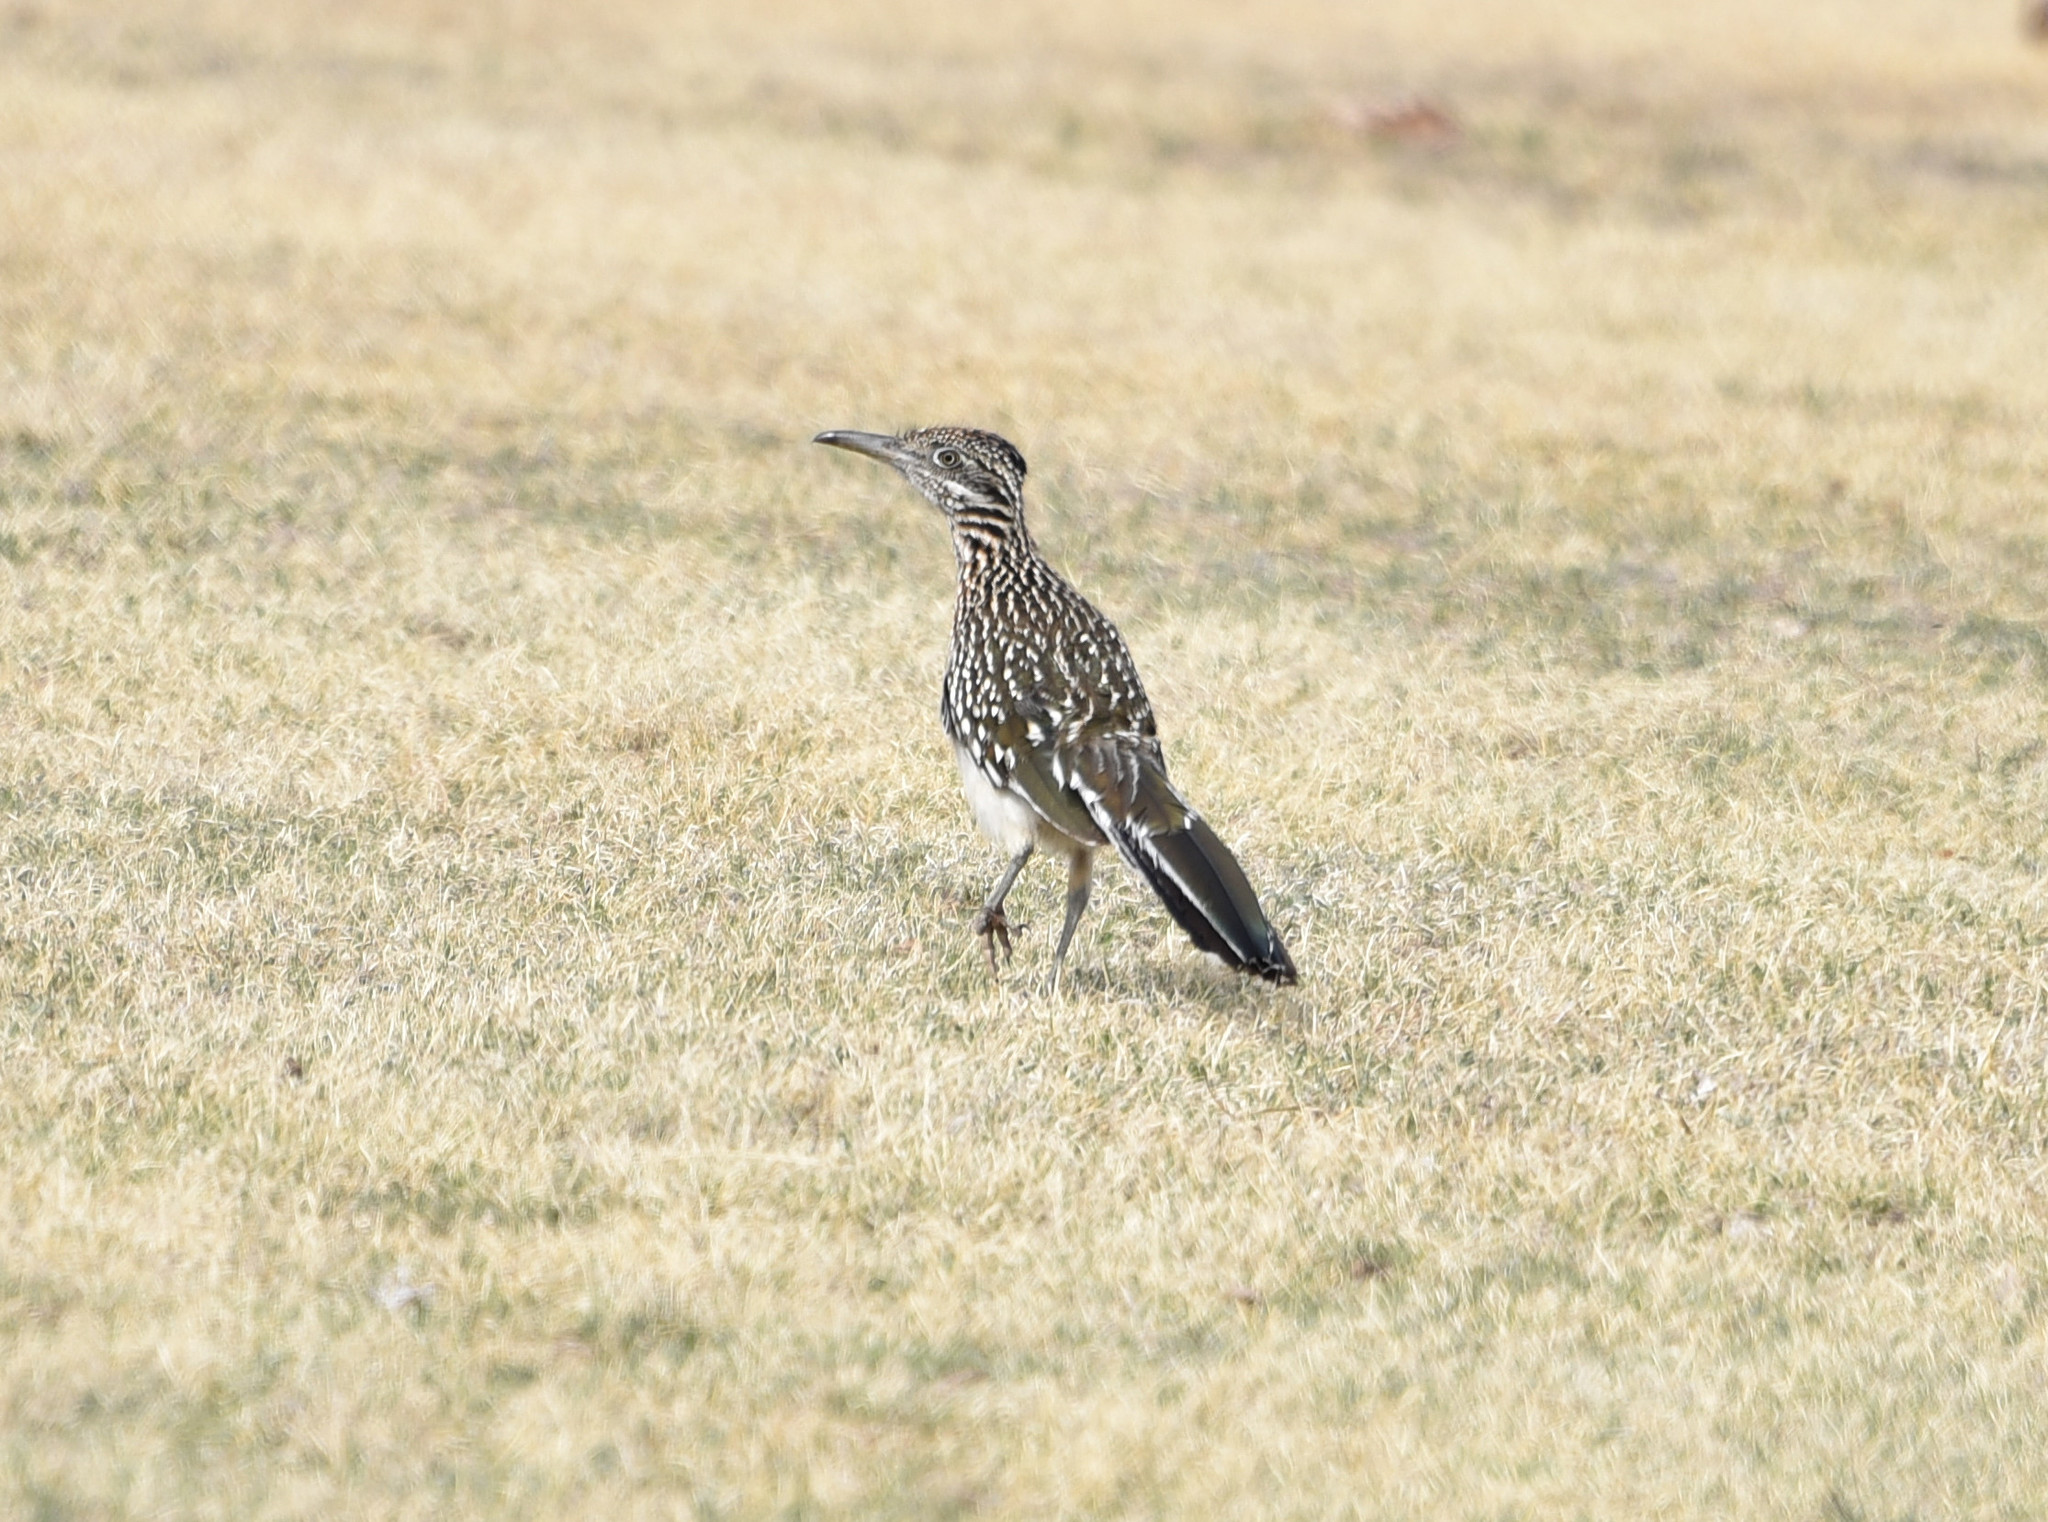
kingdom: Animalia
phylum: Chordata
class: Aves
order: Cuculiformes
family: Cuculidae
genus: Geococcyx
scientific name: Geococcyx californianus
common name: Greater roadrunner
